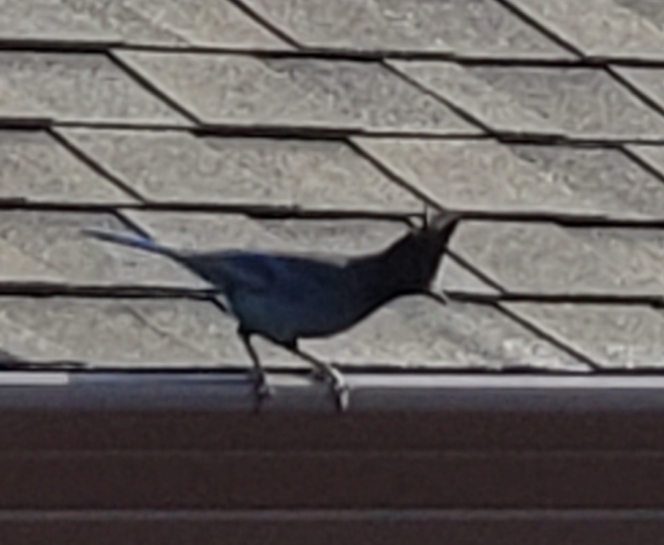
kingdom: Animalia
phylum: Chordata
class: Aves
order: Passeriformes
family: Corvidae
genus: Cyanocitta
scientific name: Cyanocitta stelleri
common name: Steller's jay
